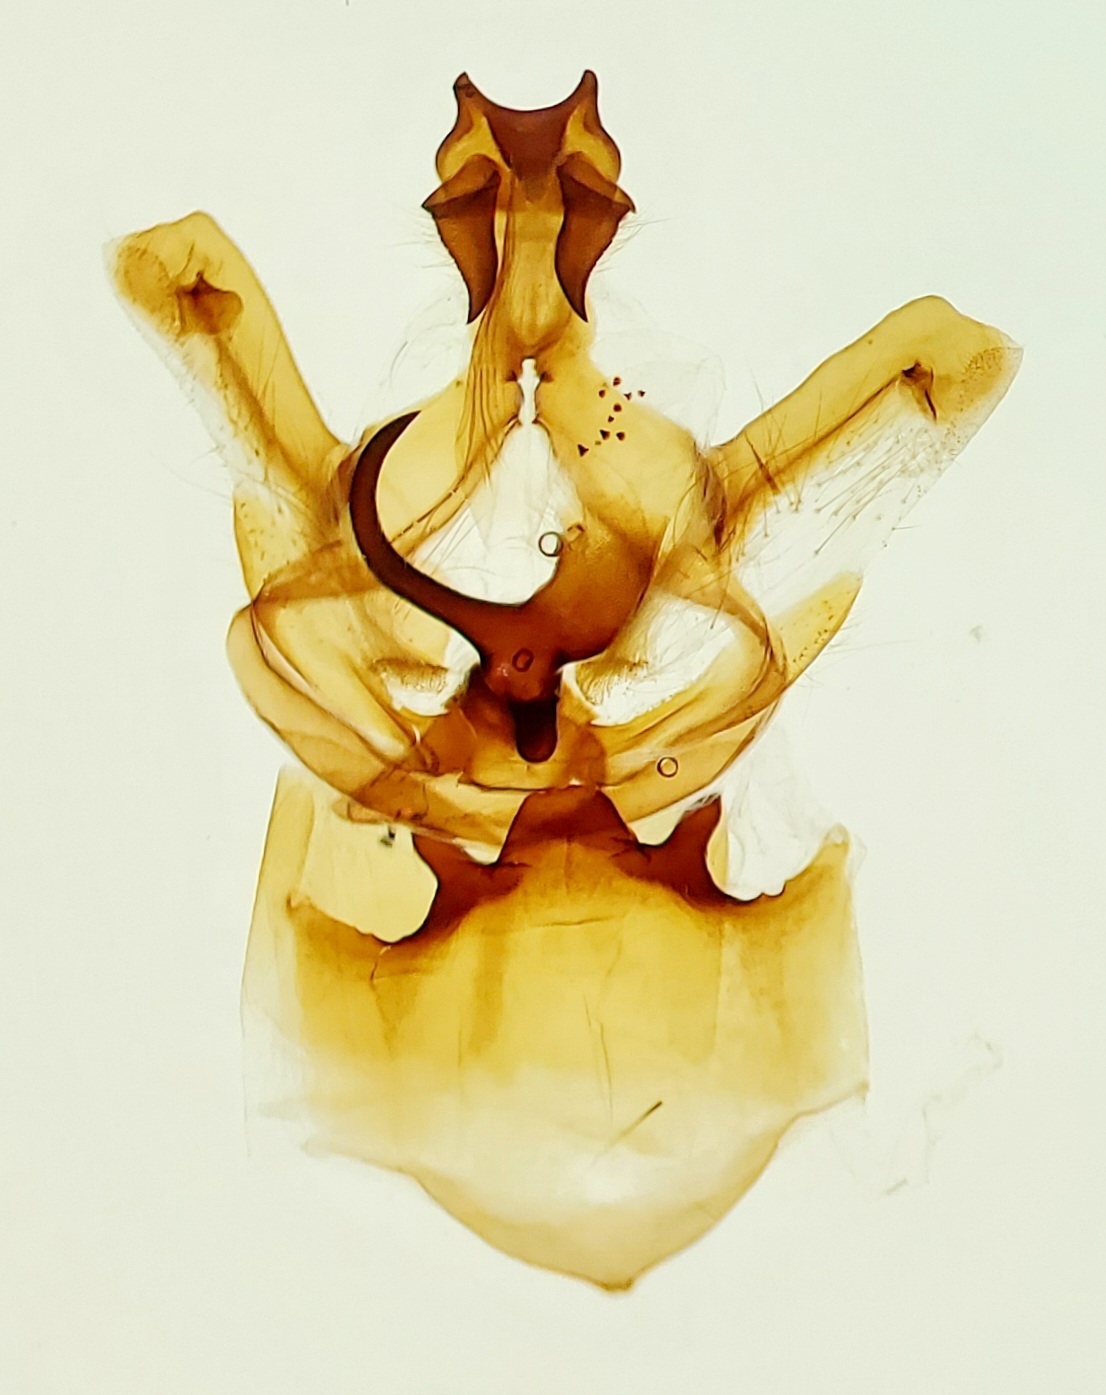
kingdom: Animalia
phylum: Arthropoda
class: Insecta
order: Lepidoptera
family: Notodontidae
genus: Symmerista
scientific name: Symmerista zacualpana
